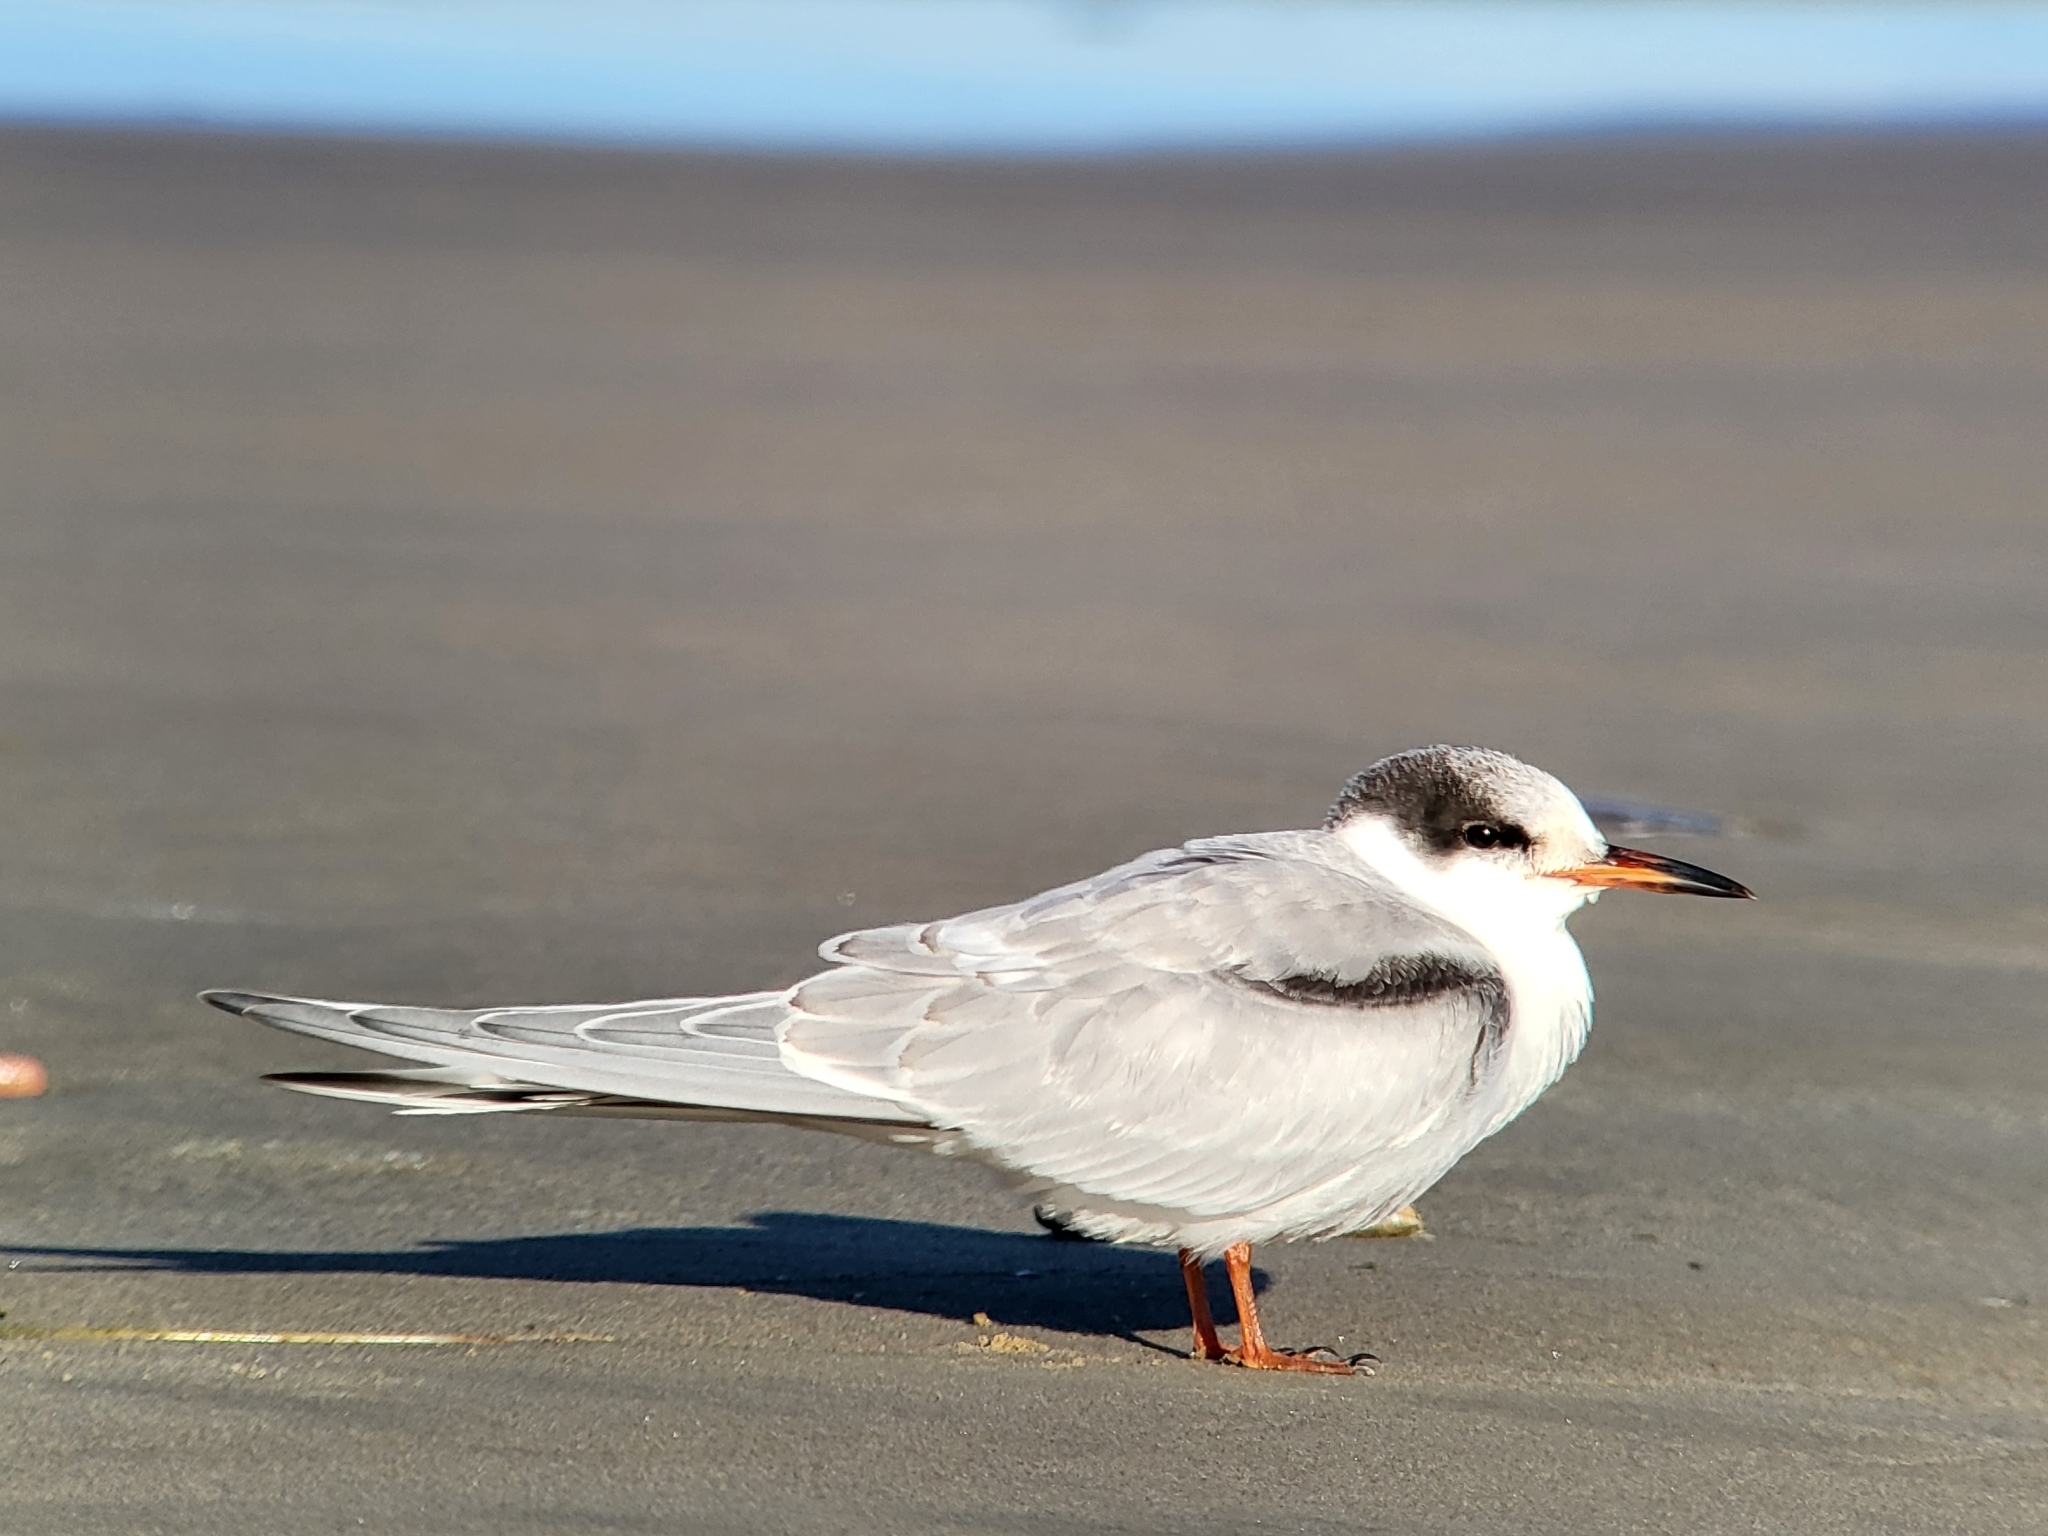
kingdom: Animalia
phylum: Chordata
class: Aves
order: Charadriiformes
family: Laridae
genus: Sterna
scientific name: Sterna hirundo
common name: Common tern
